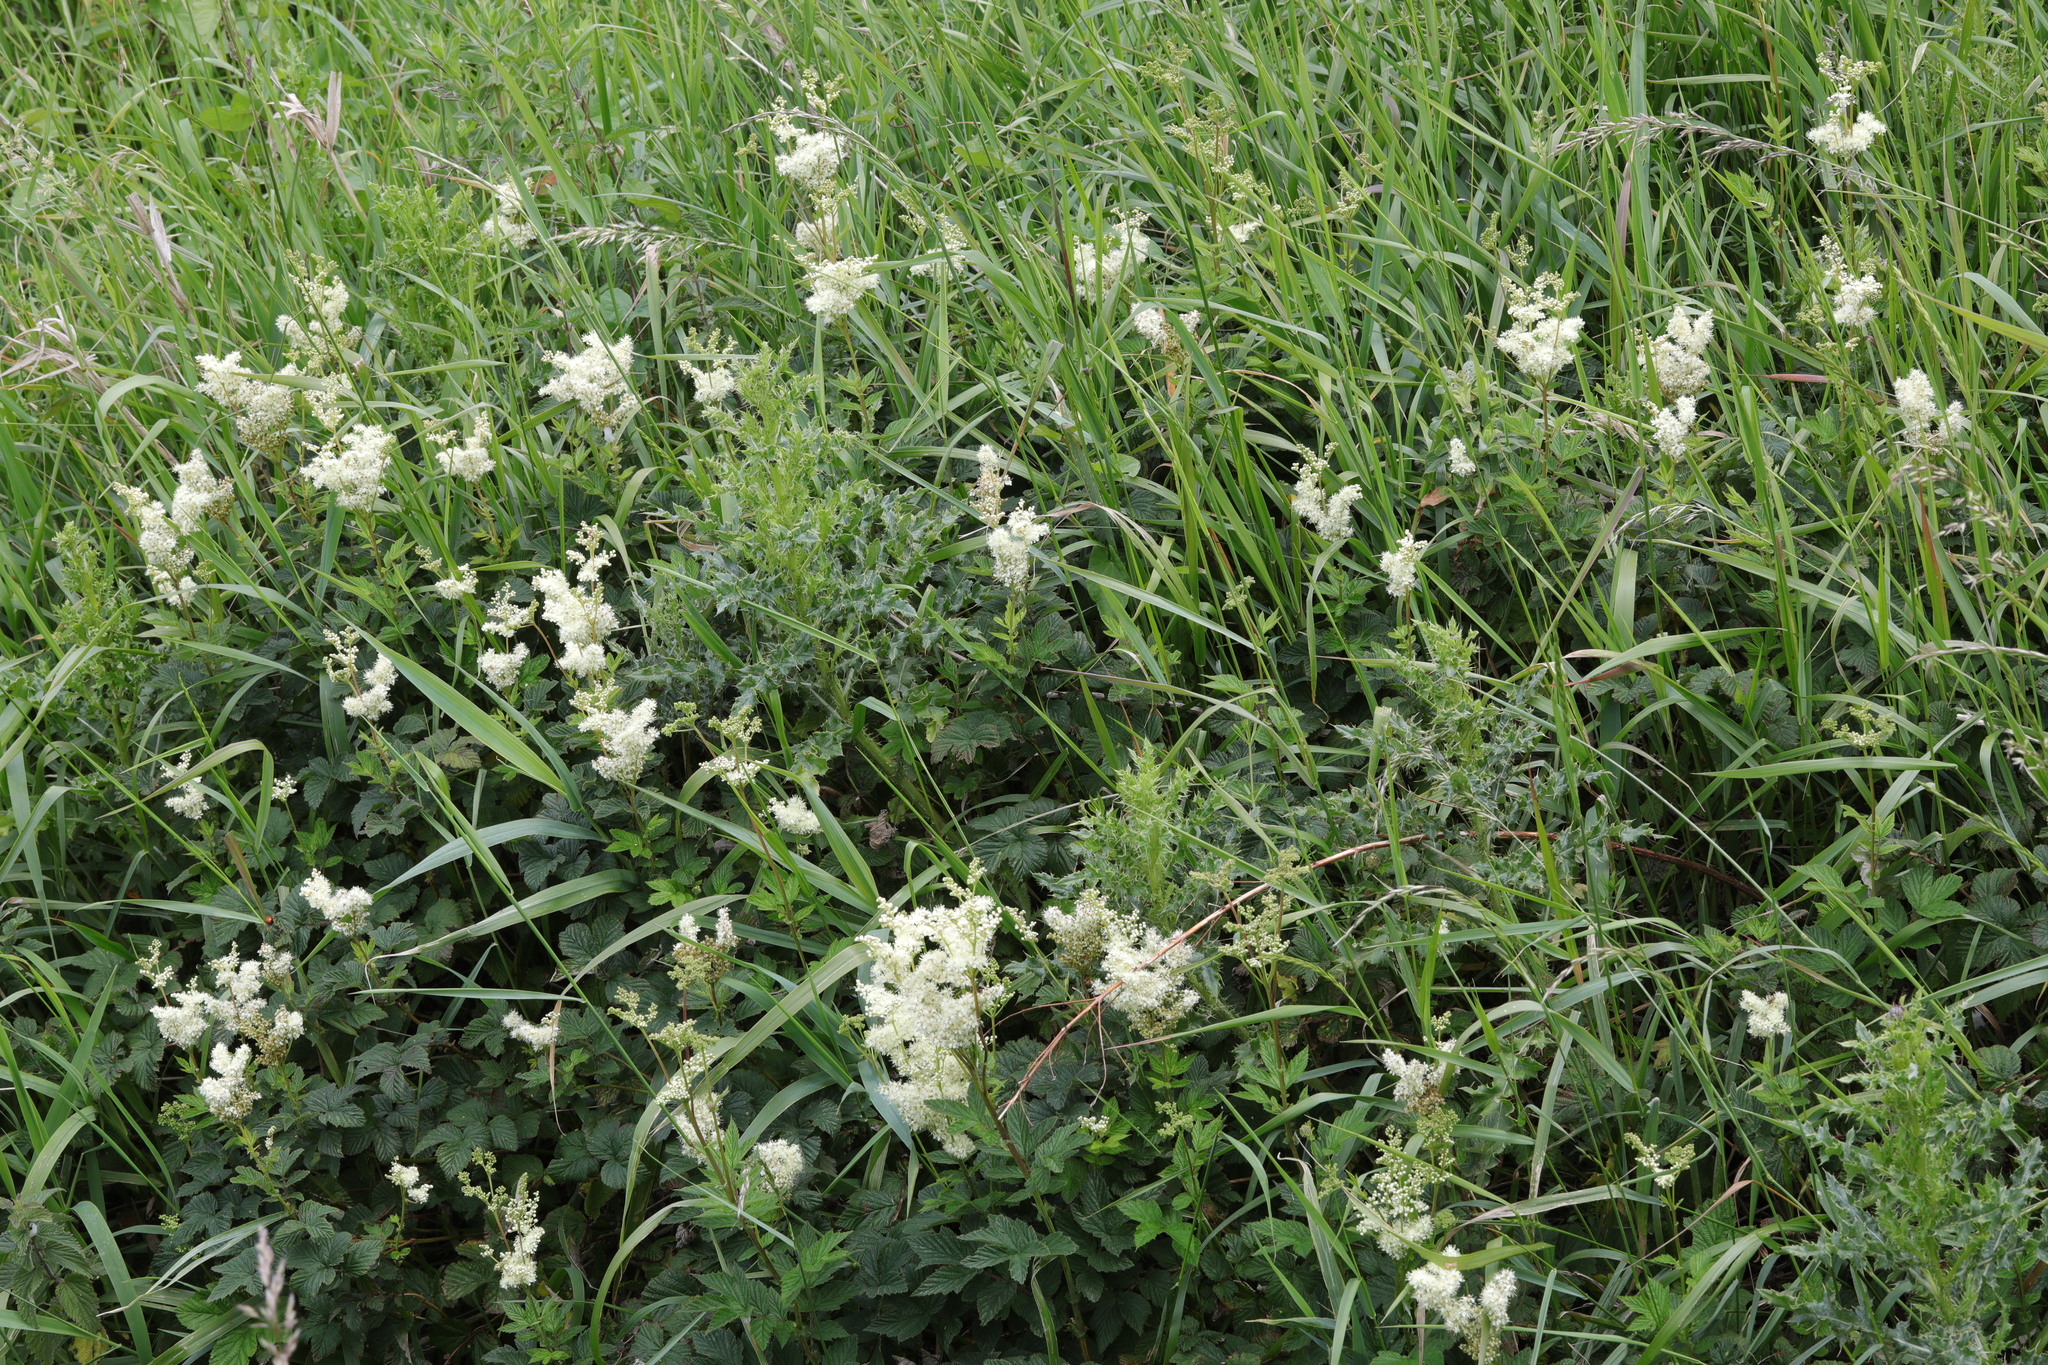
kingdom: Plantae
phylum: Tracheophyta
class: Magnoliopsida
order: Rosales
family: Rosaceae
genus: Filipendula
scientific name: Filipendula ulmaria
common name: Meadowsweet
